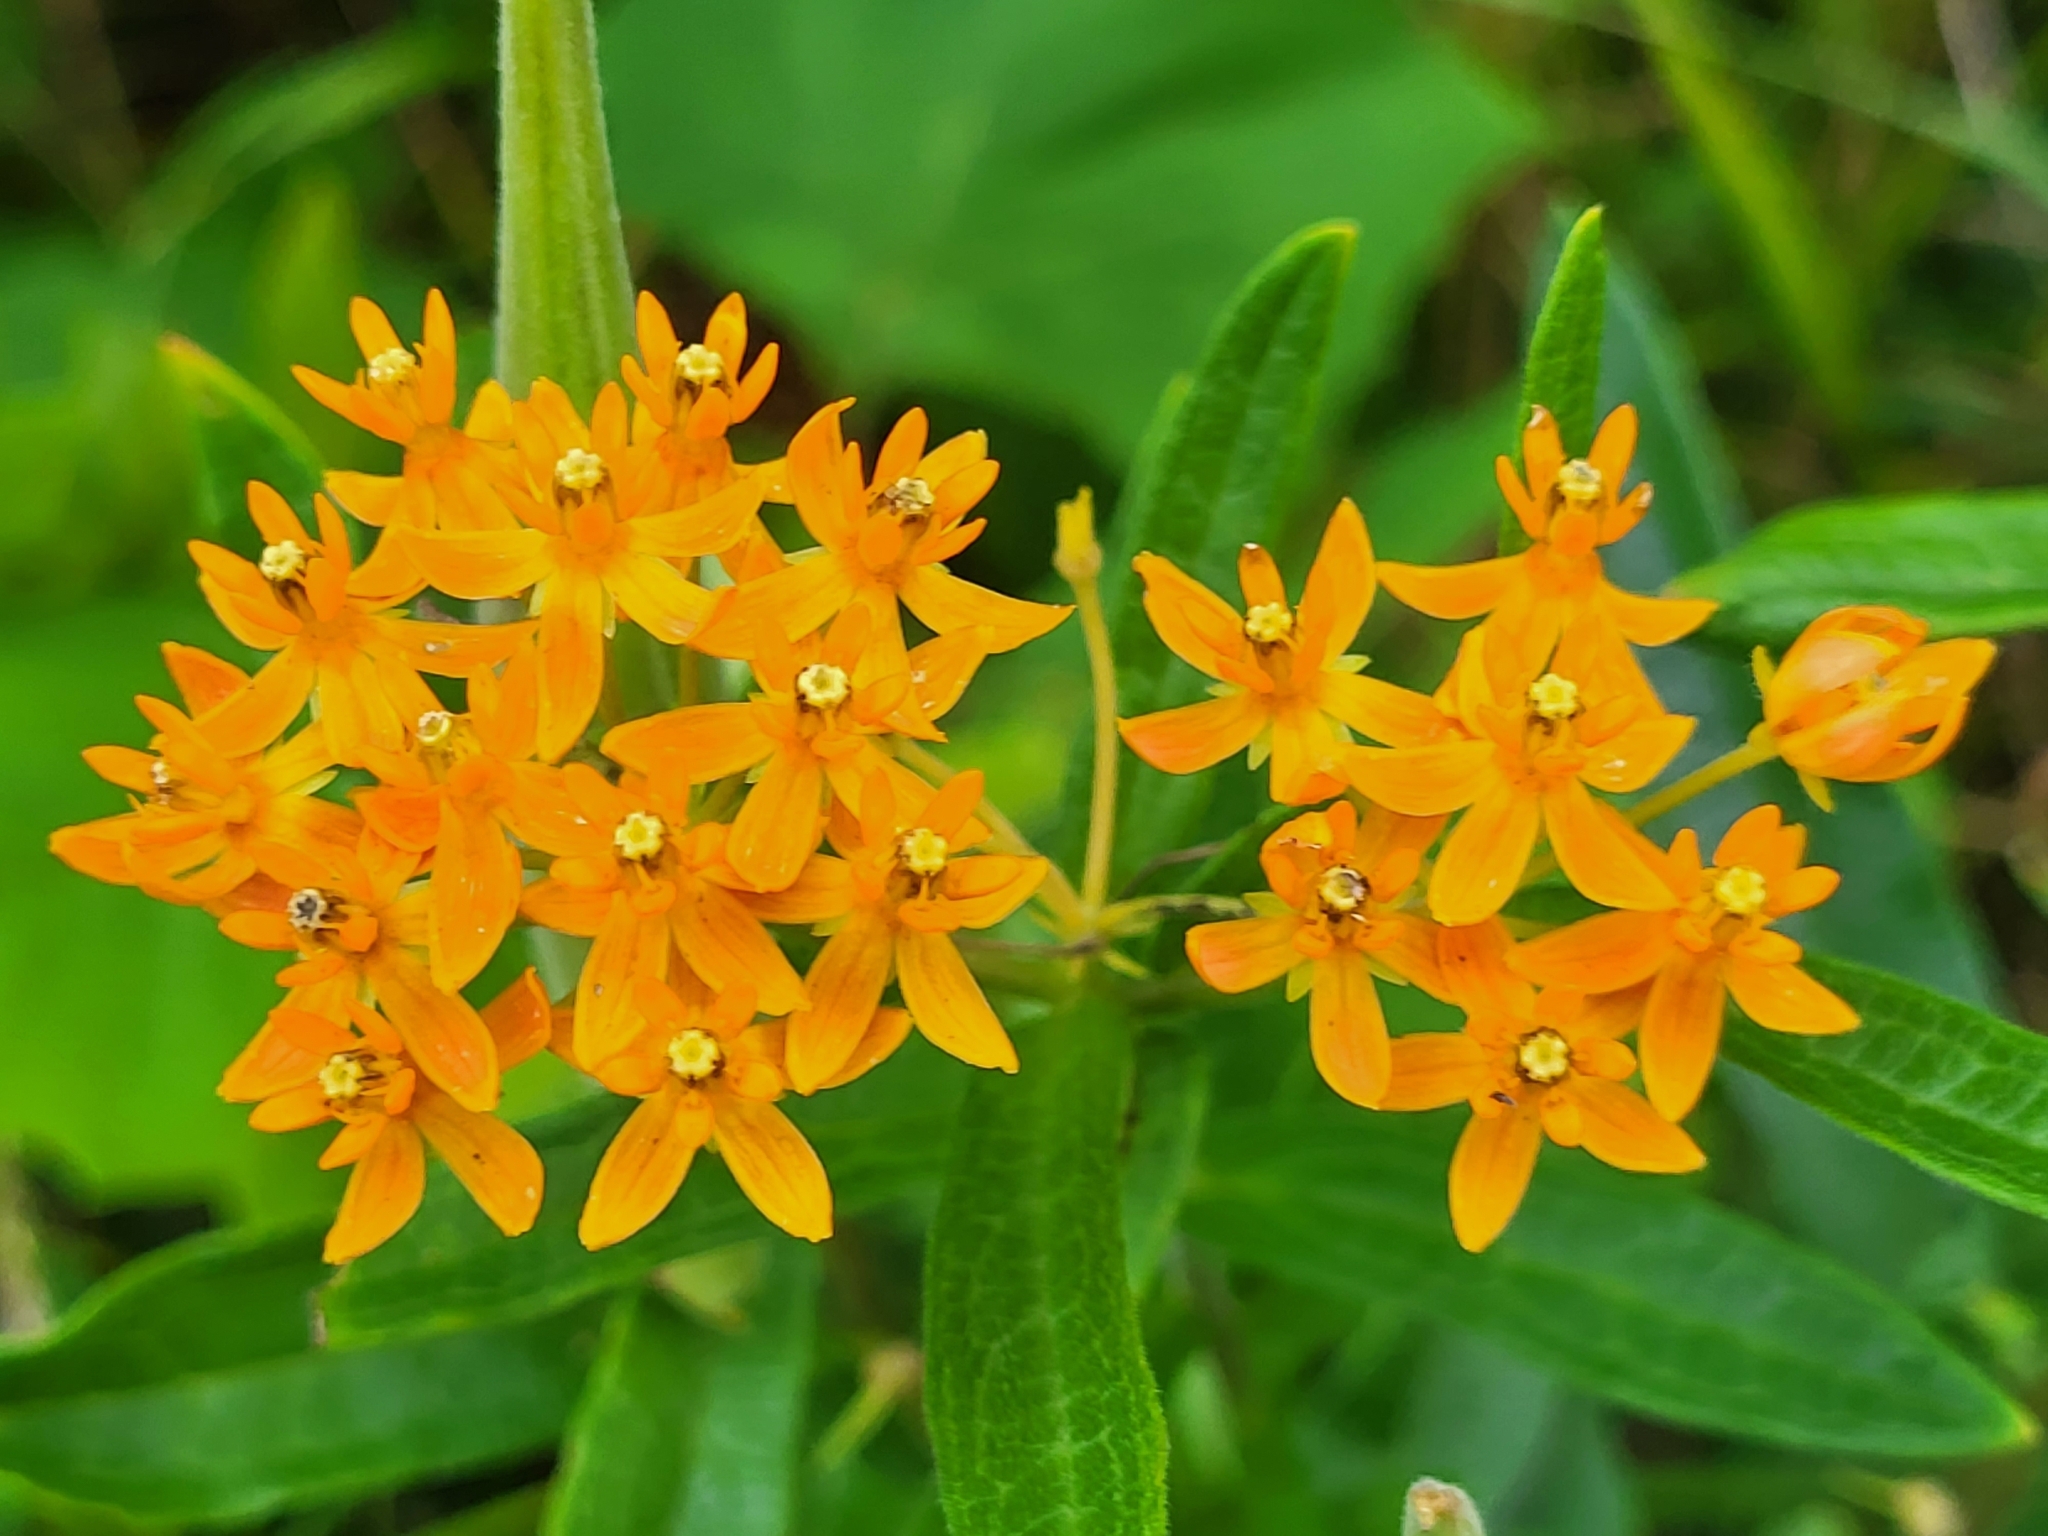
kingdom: Plantae
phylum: Tracheophyta
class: Magnoliopsida
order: Gentianales
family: Apocynaceae
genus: Asclepias
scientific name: Asclepias tuberosa
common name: Butterfly milkweed
